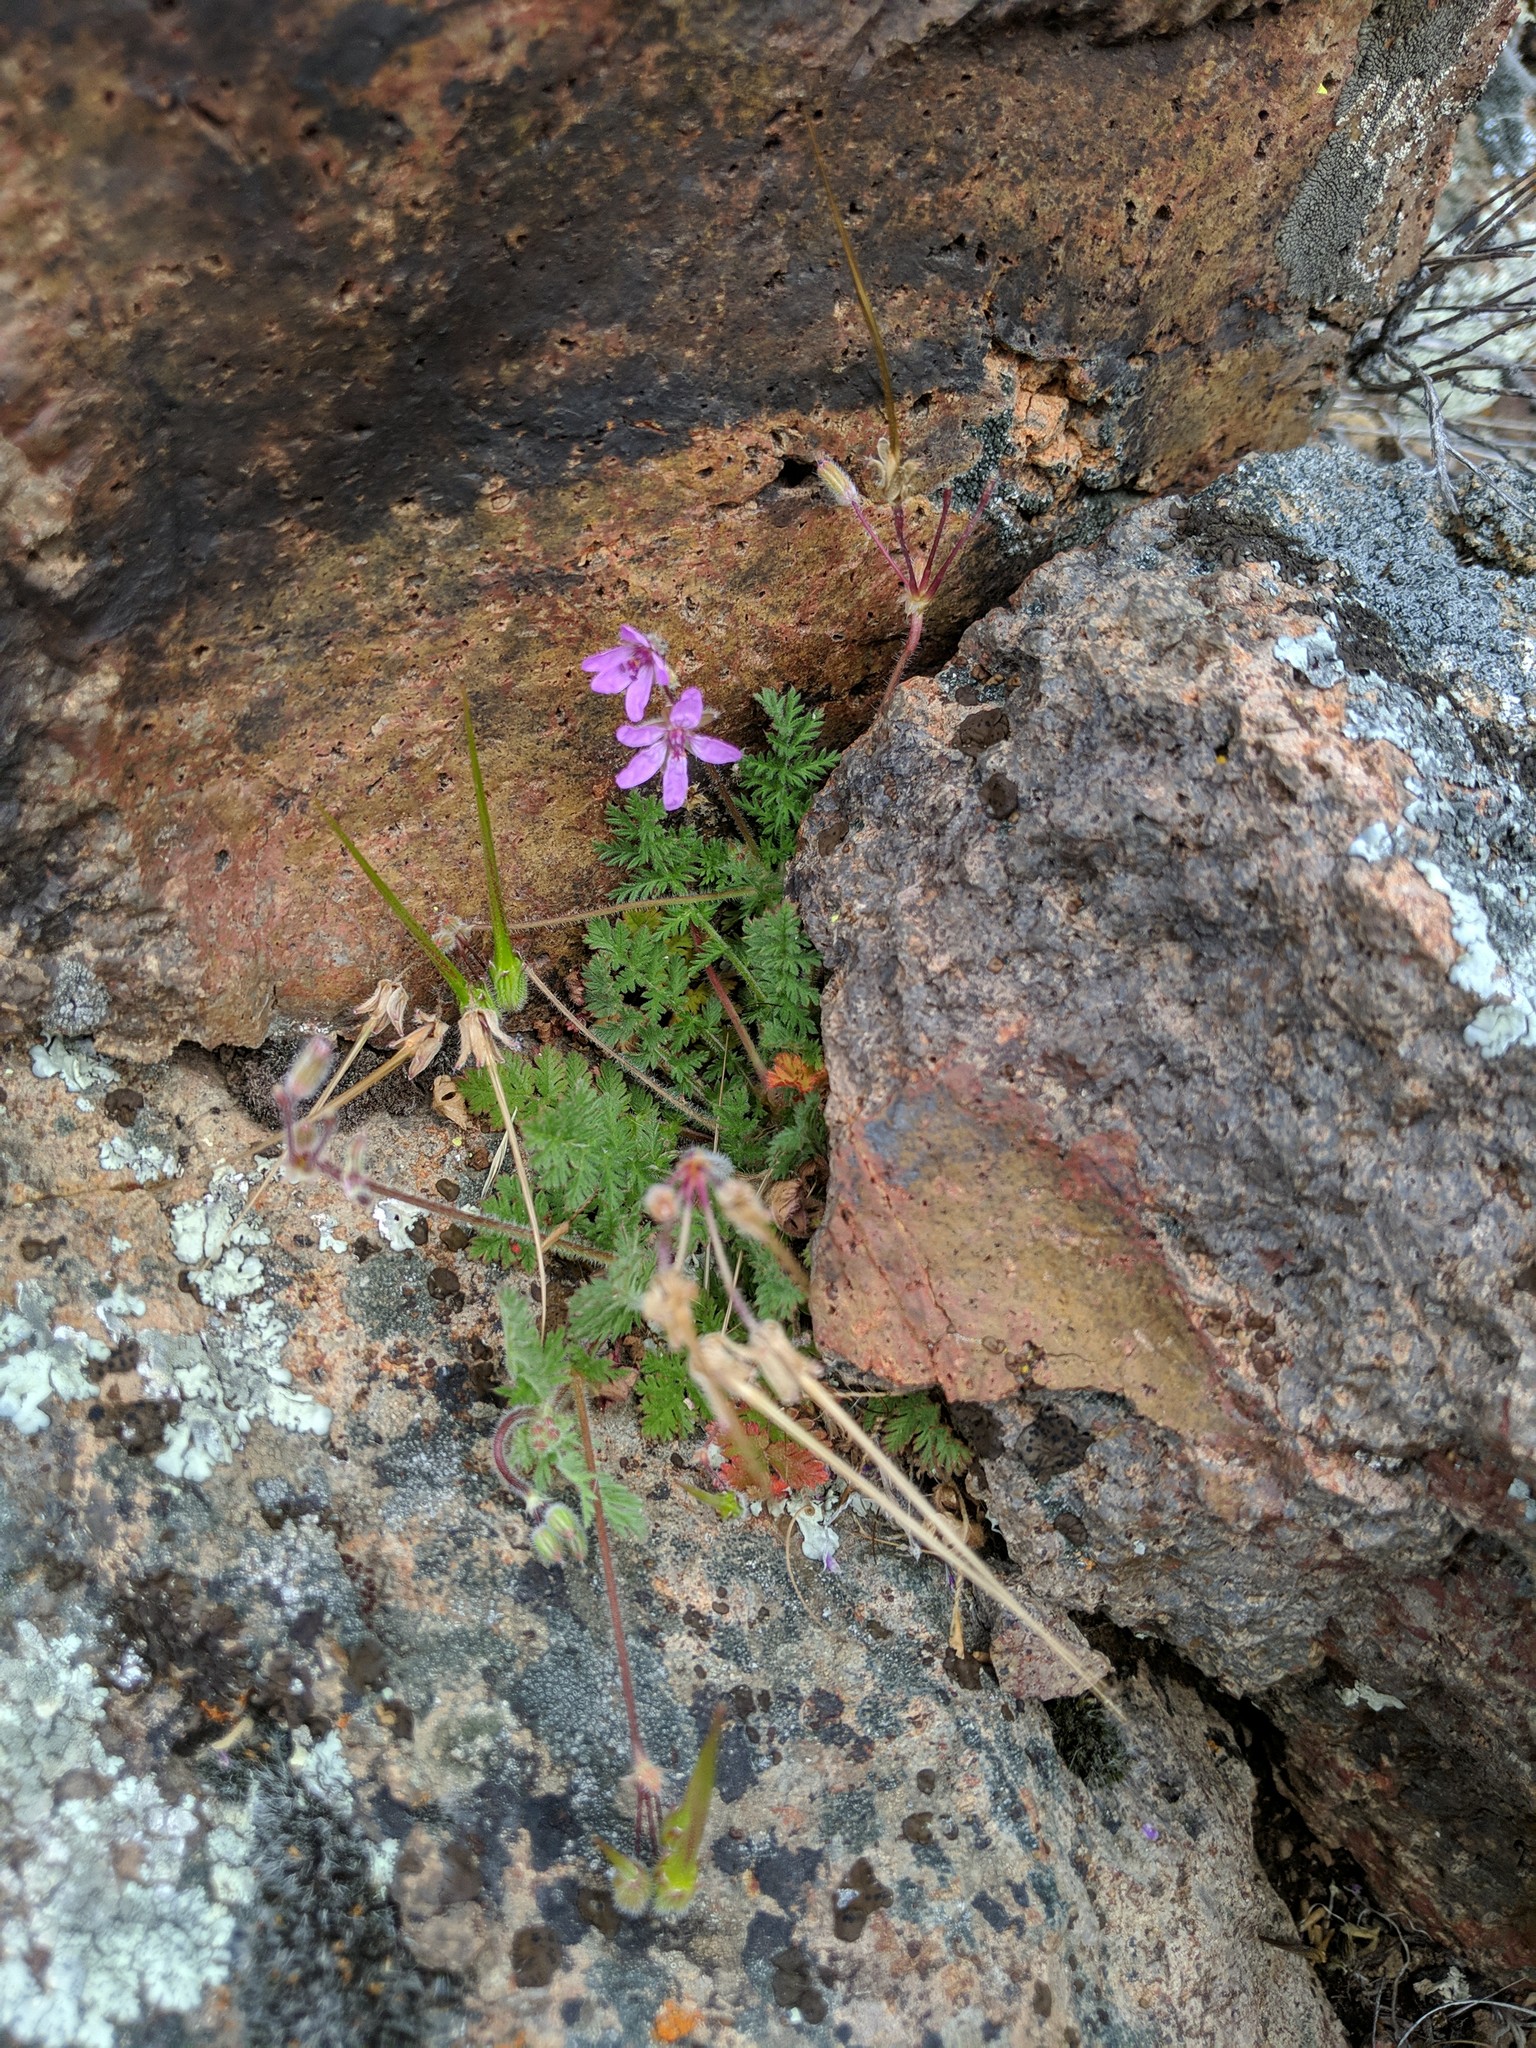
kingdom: Plantae
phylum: Tracheophyta
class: Magnoliopsida
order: Geraniales
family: Geraniaceae
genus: Erodium
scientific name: Erodium cicutarium
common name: Common stork's-bill
